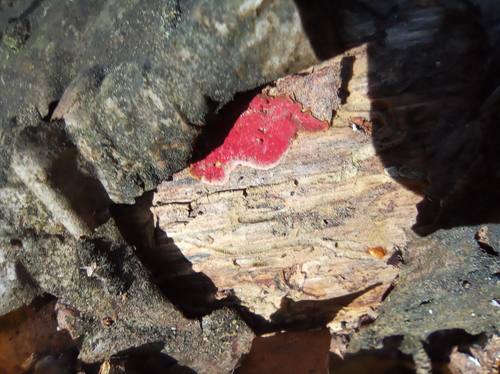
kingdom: Fungi
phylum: Basidiomycota
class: Agaricomycetes
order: Hymenochaetales
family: Hymenochaetaceae
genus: Hymenochaete
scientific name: Hymenochaete mougeotii
